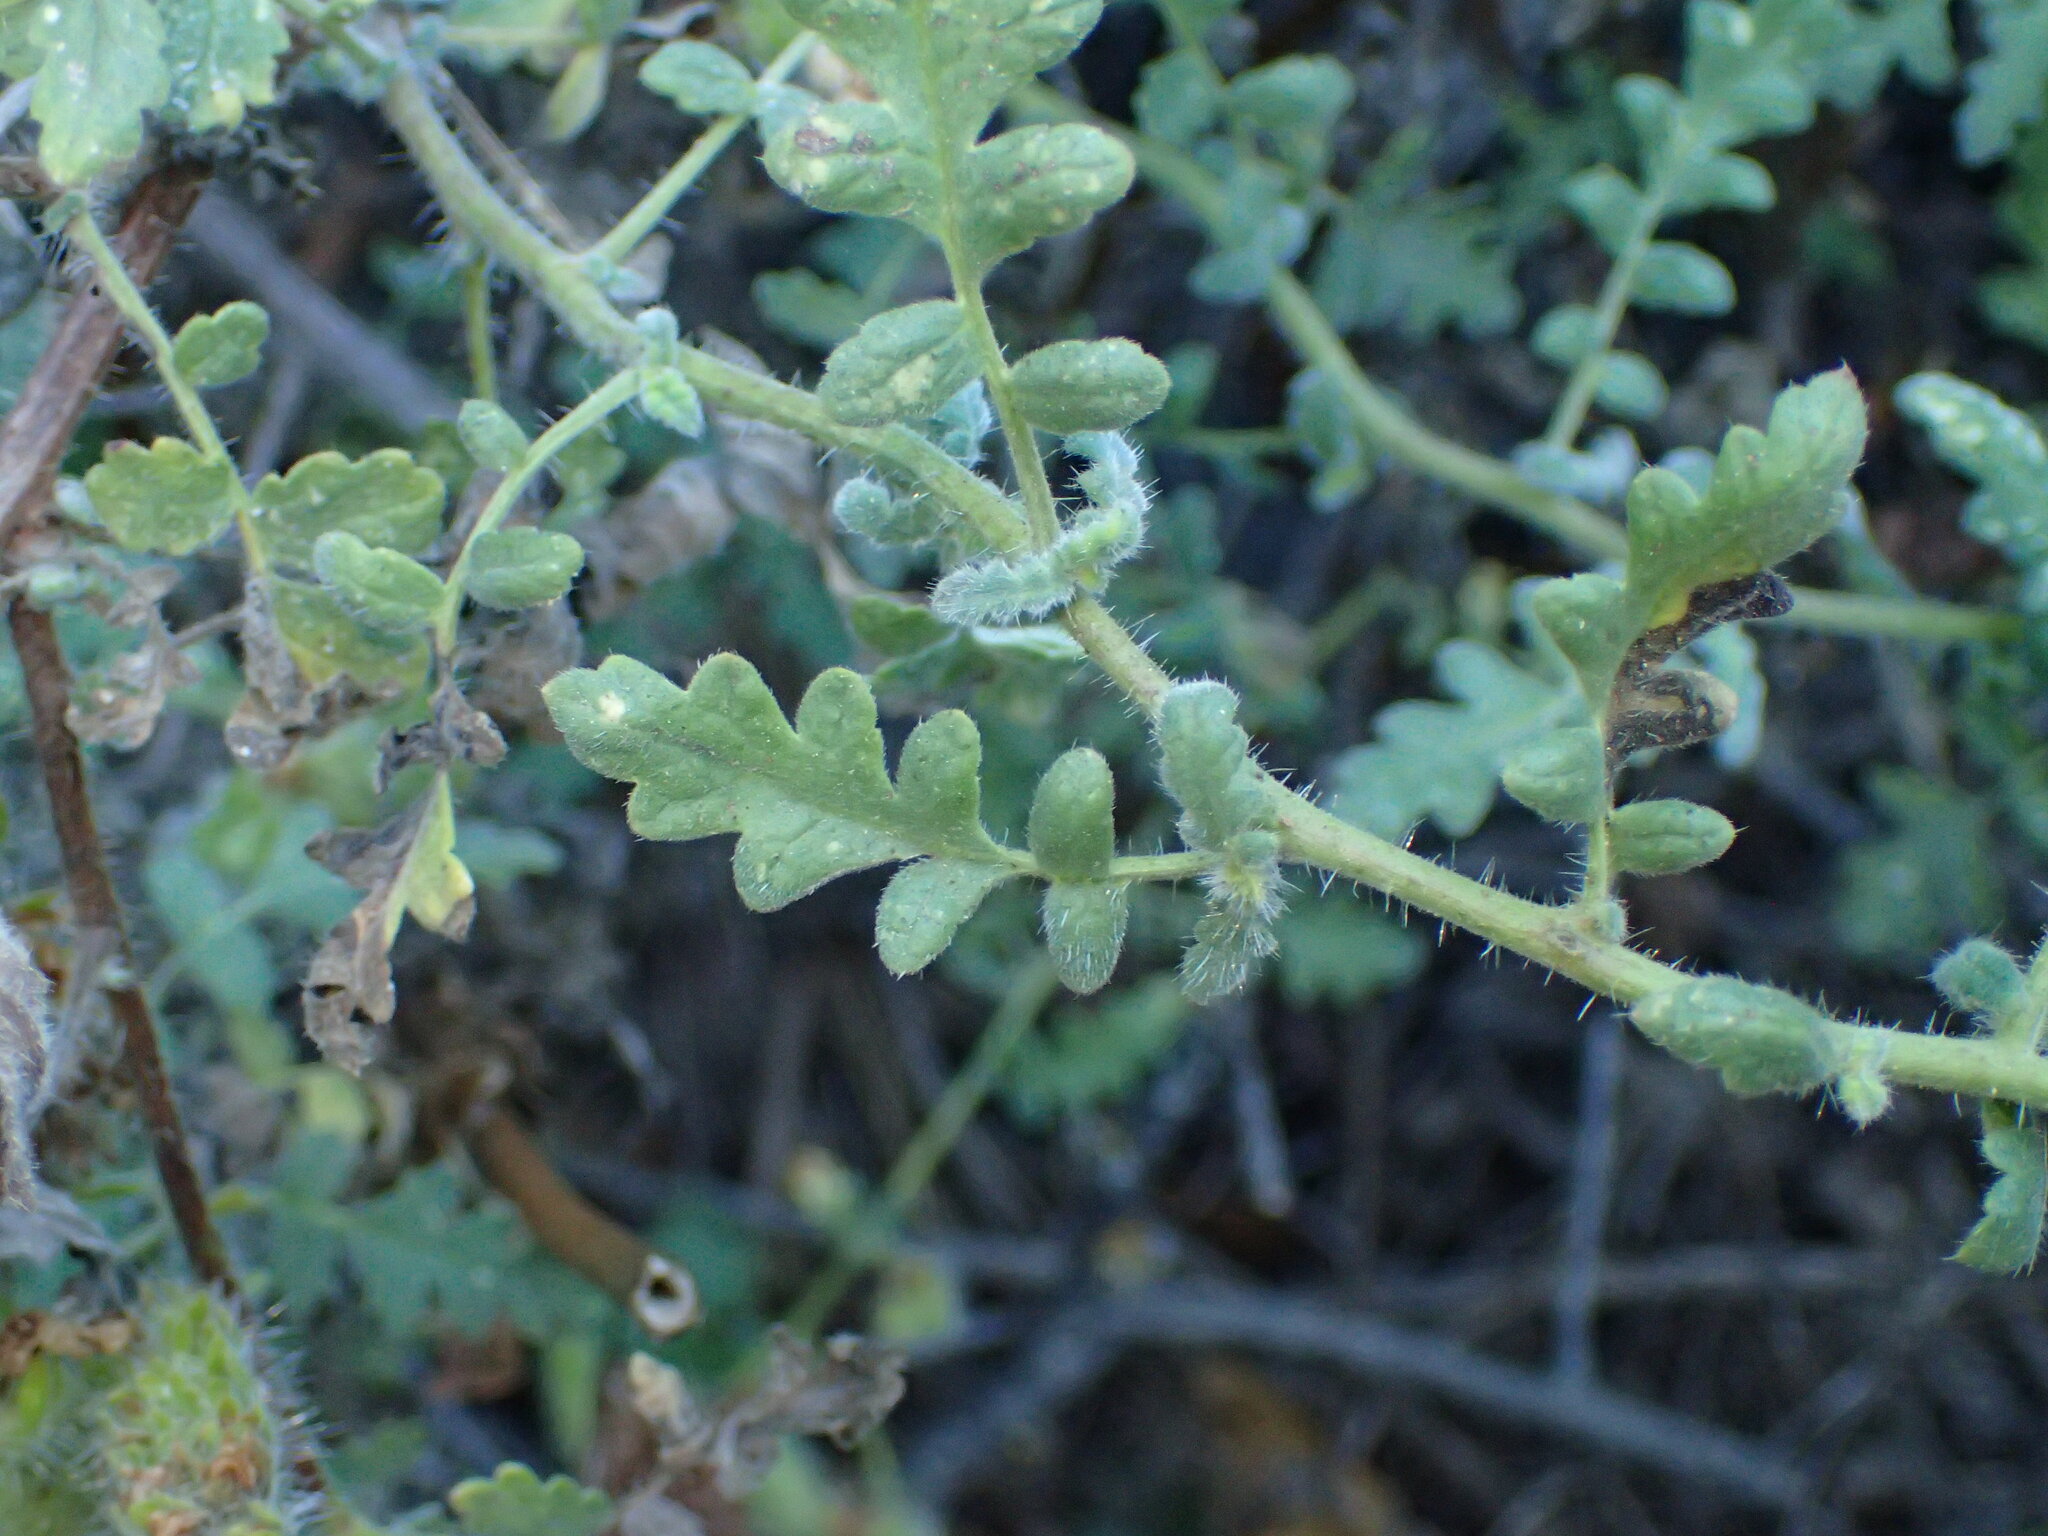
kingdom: Plantae
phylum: Tracheophyta
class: Magnoliopsida
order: Boraginales
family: Hydrophyllaceae
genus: Phacelia
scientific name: Phacelia ramosissima
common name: Branching phacelia
